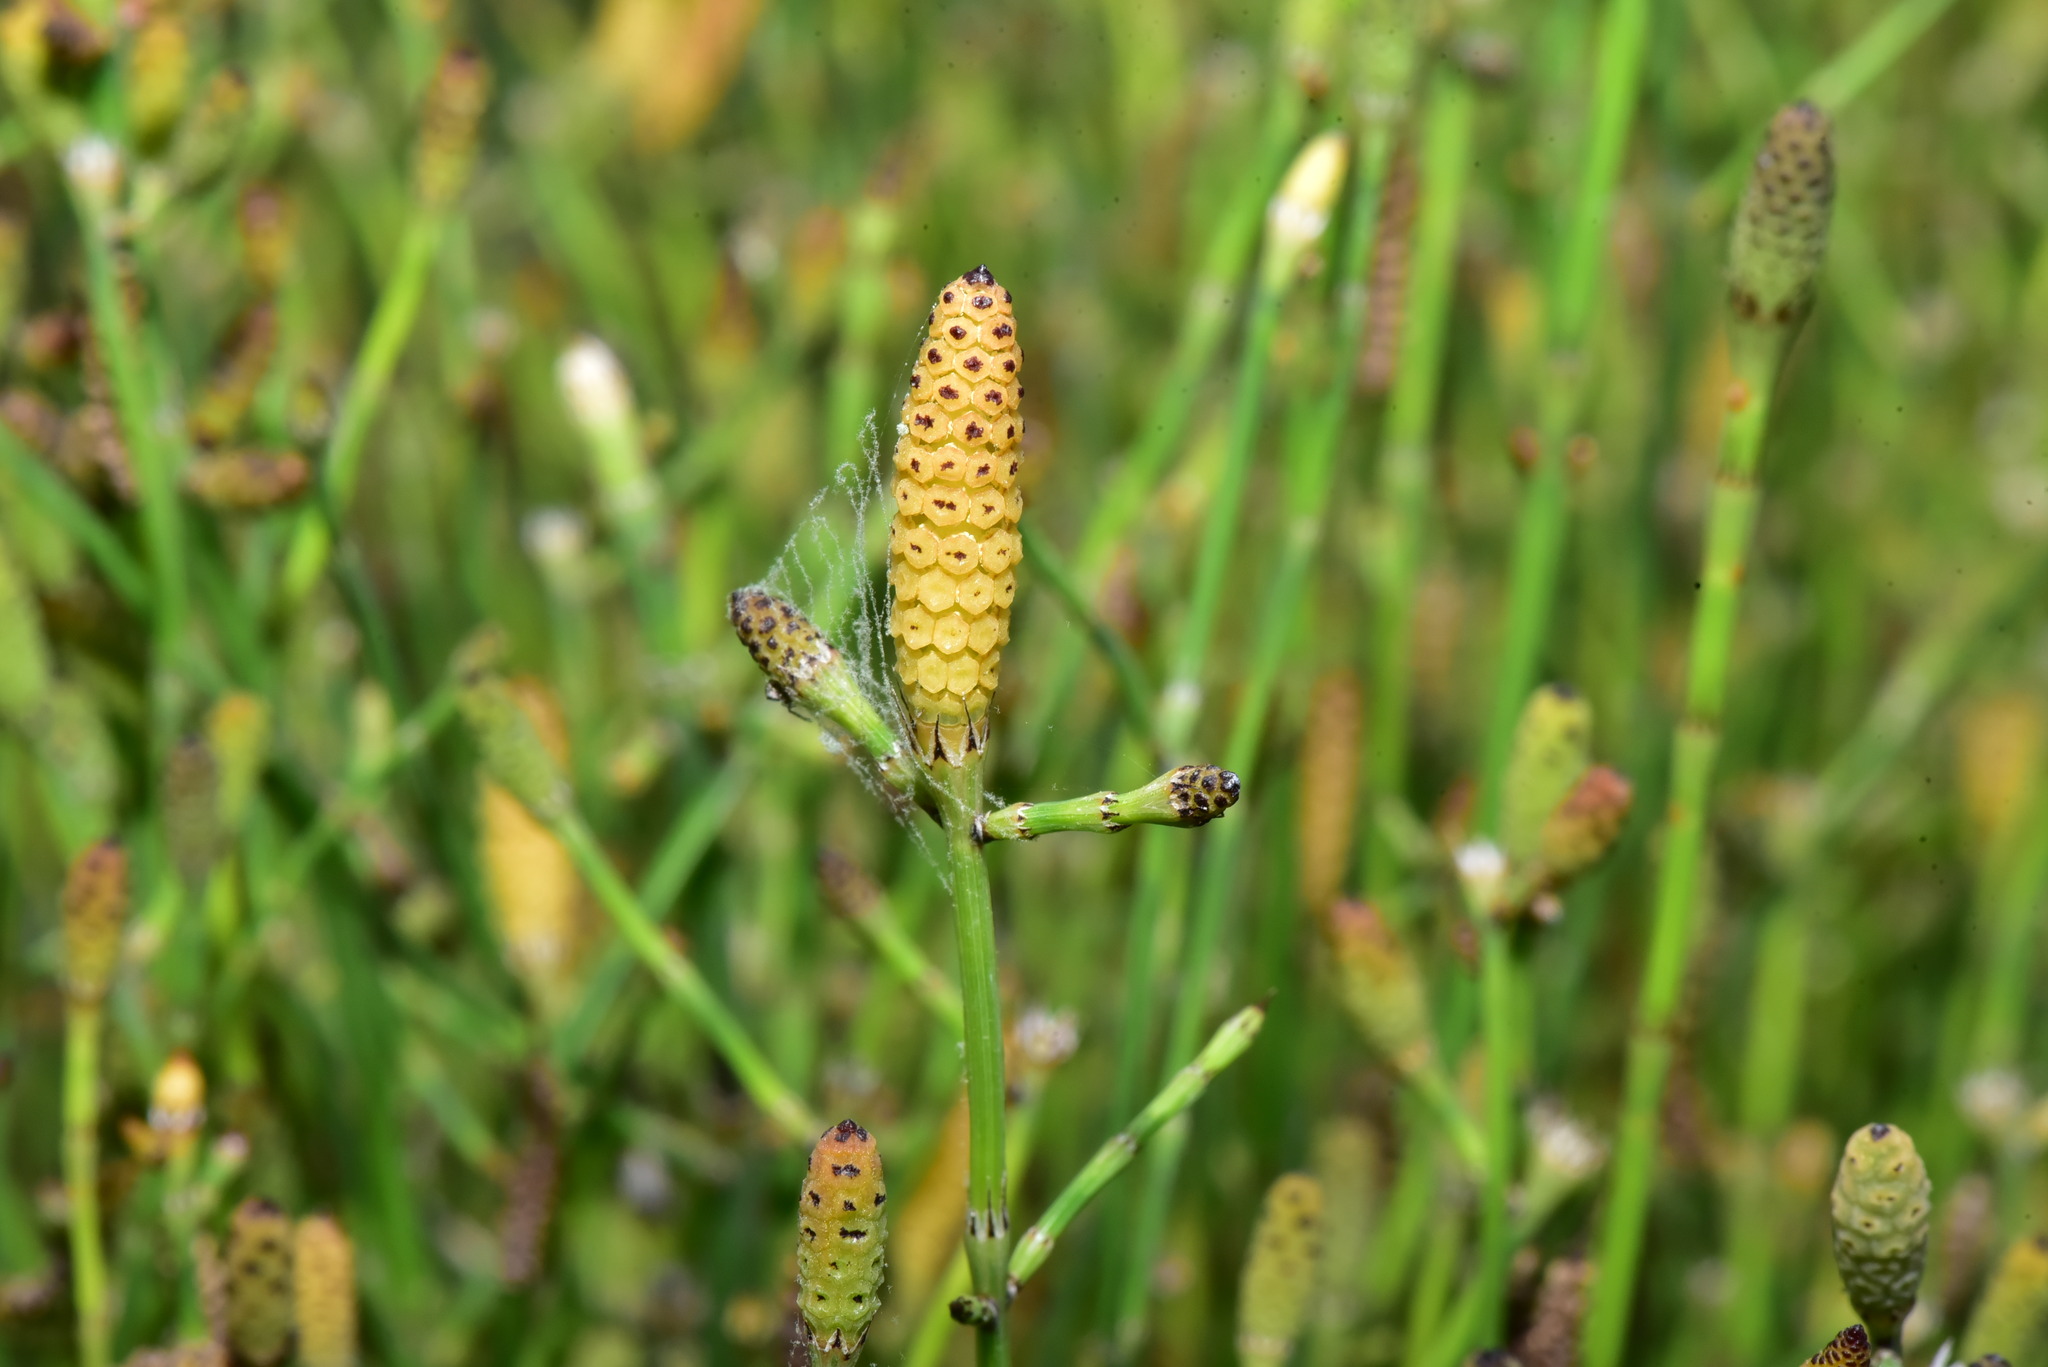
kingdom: Plantae
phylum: Tracheophyta
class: Polypodiopsida
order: Equisetales
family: Equisetaceae
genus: Equisetum
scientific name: Equisetum ramosissimum
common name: Branched horsetail
